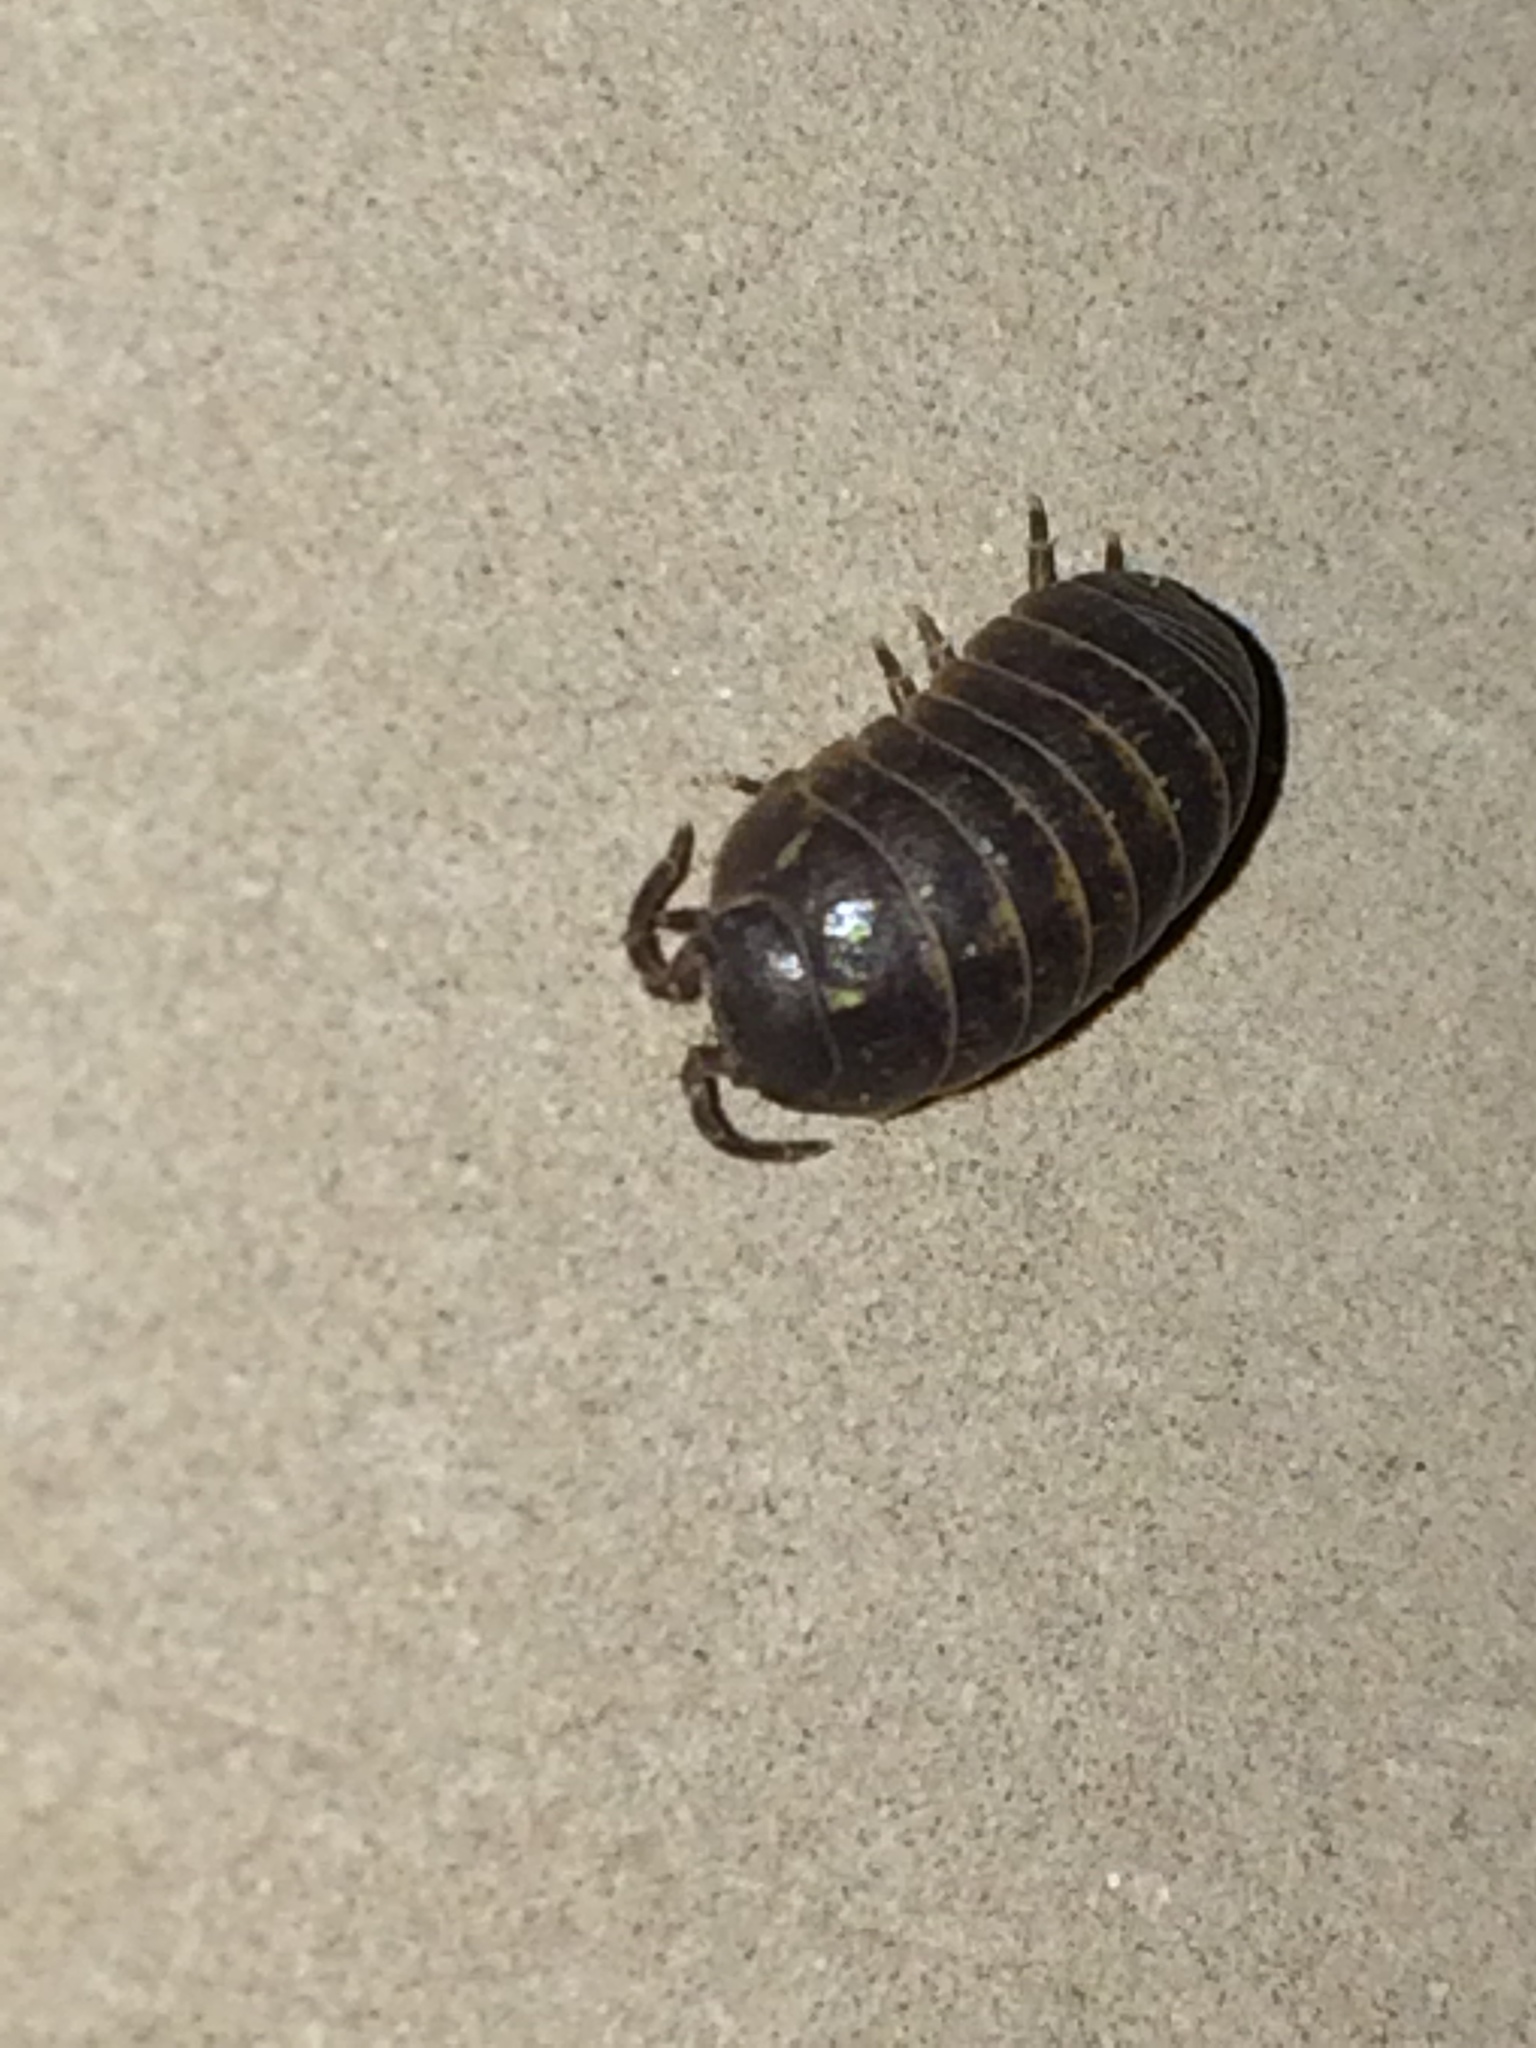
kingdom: Animalia
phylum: Arthropoda
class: Malacostraca
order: Isopoda
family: Armadillidiidae
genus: Armadillidium
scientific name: Armadillidium vulgare
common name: Common pill woodlouse
